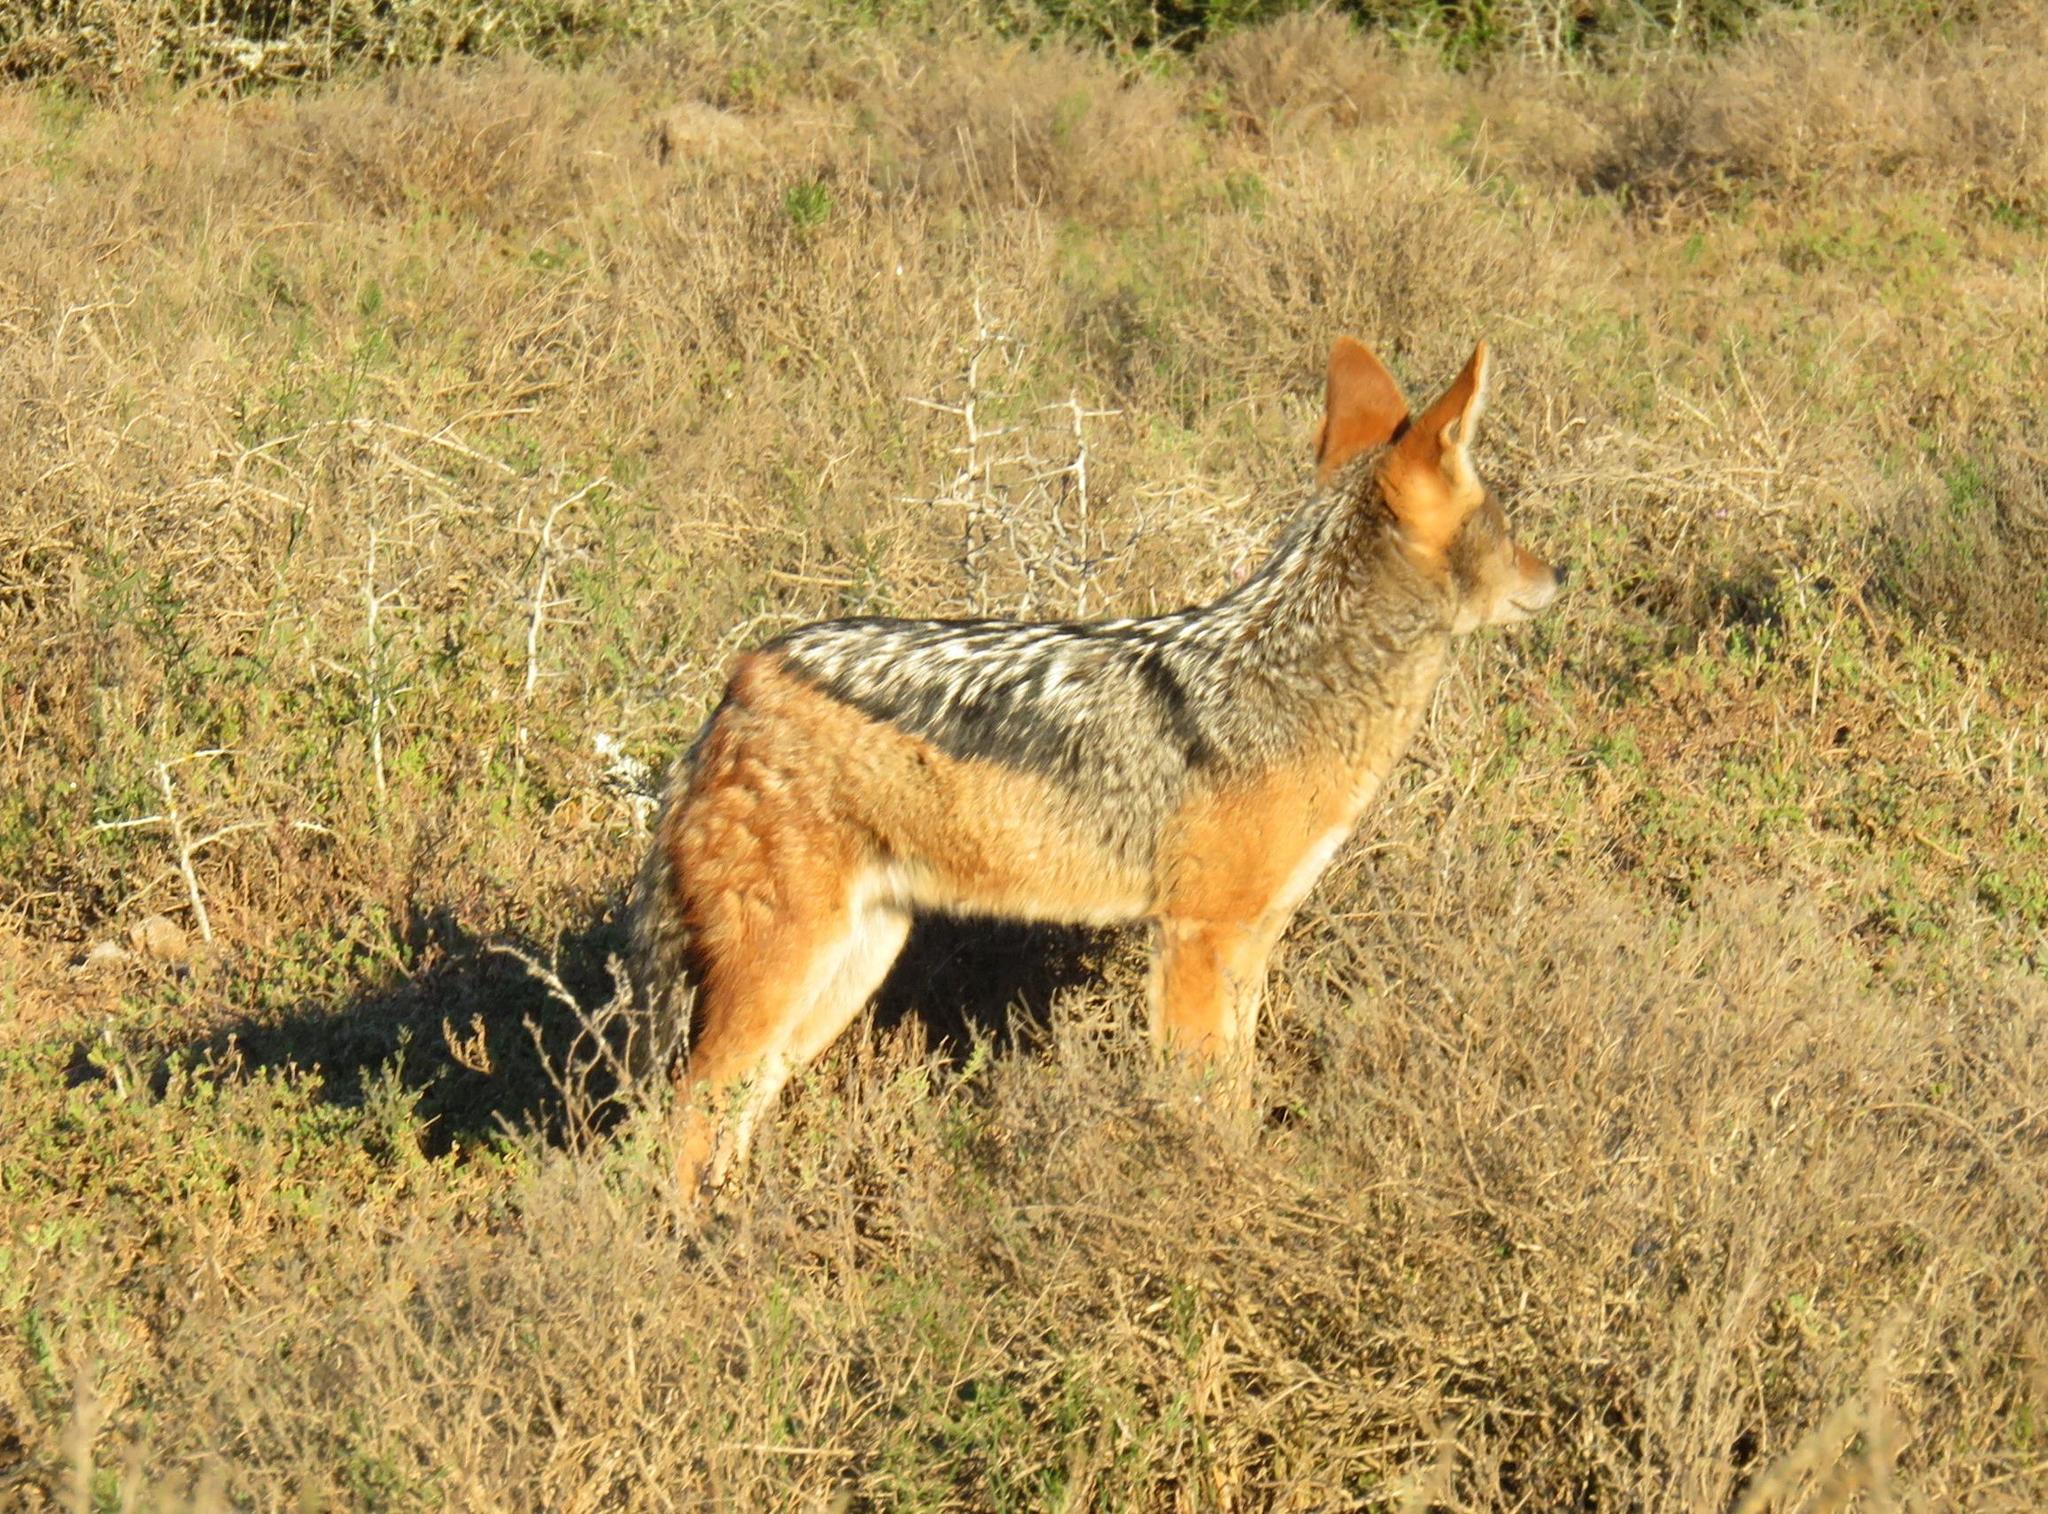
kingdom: Animalia
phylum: Chordata
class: Mammalia
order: Carnivora
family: Canidae
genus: Lupulella
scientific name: Lupulella
